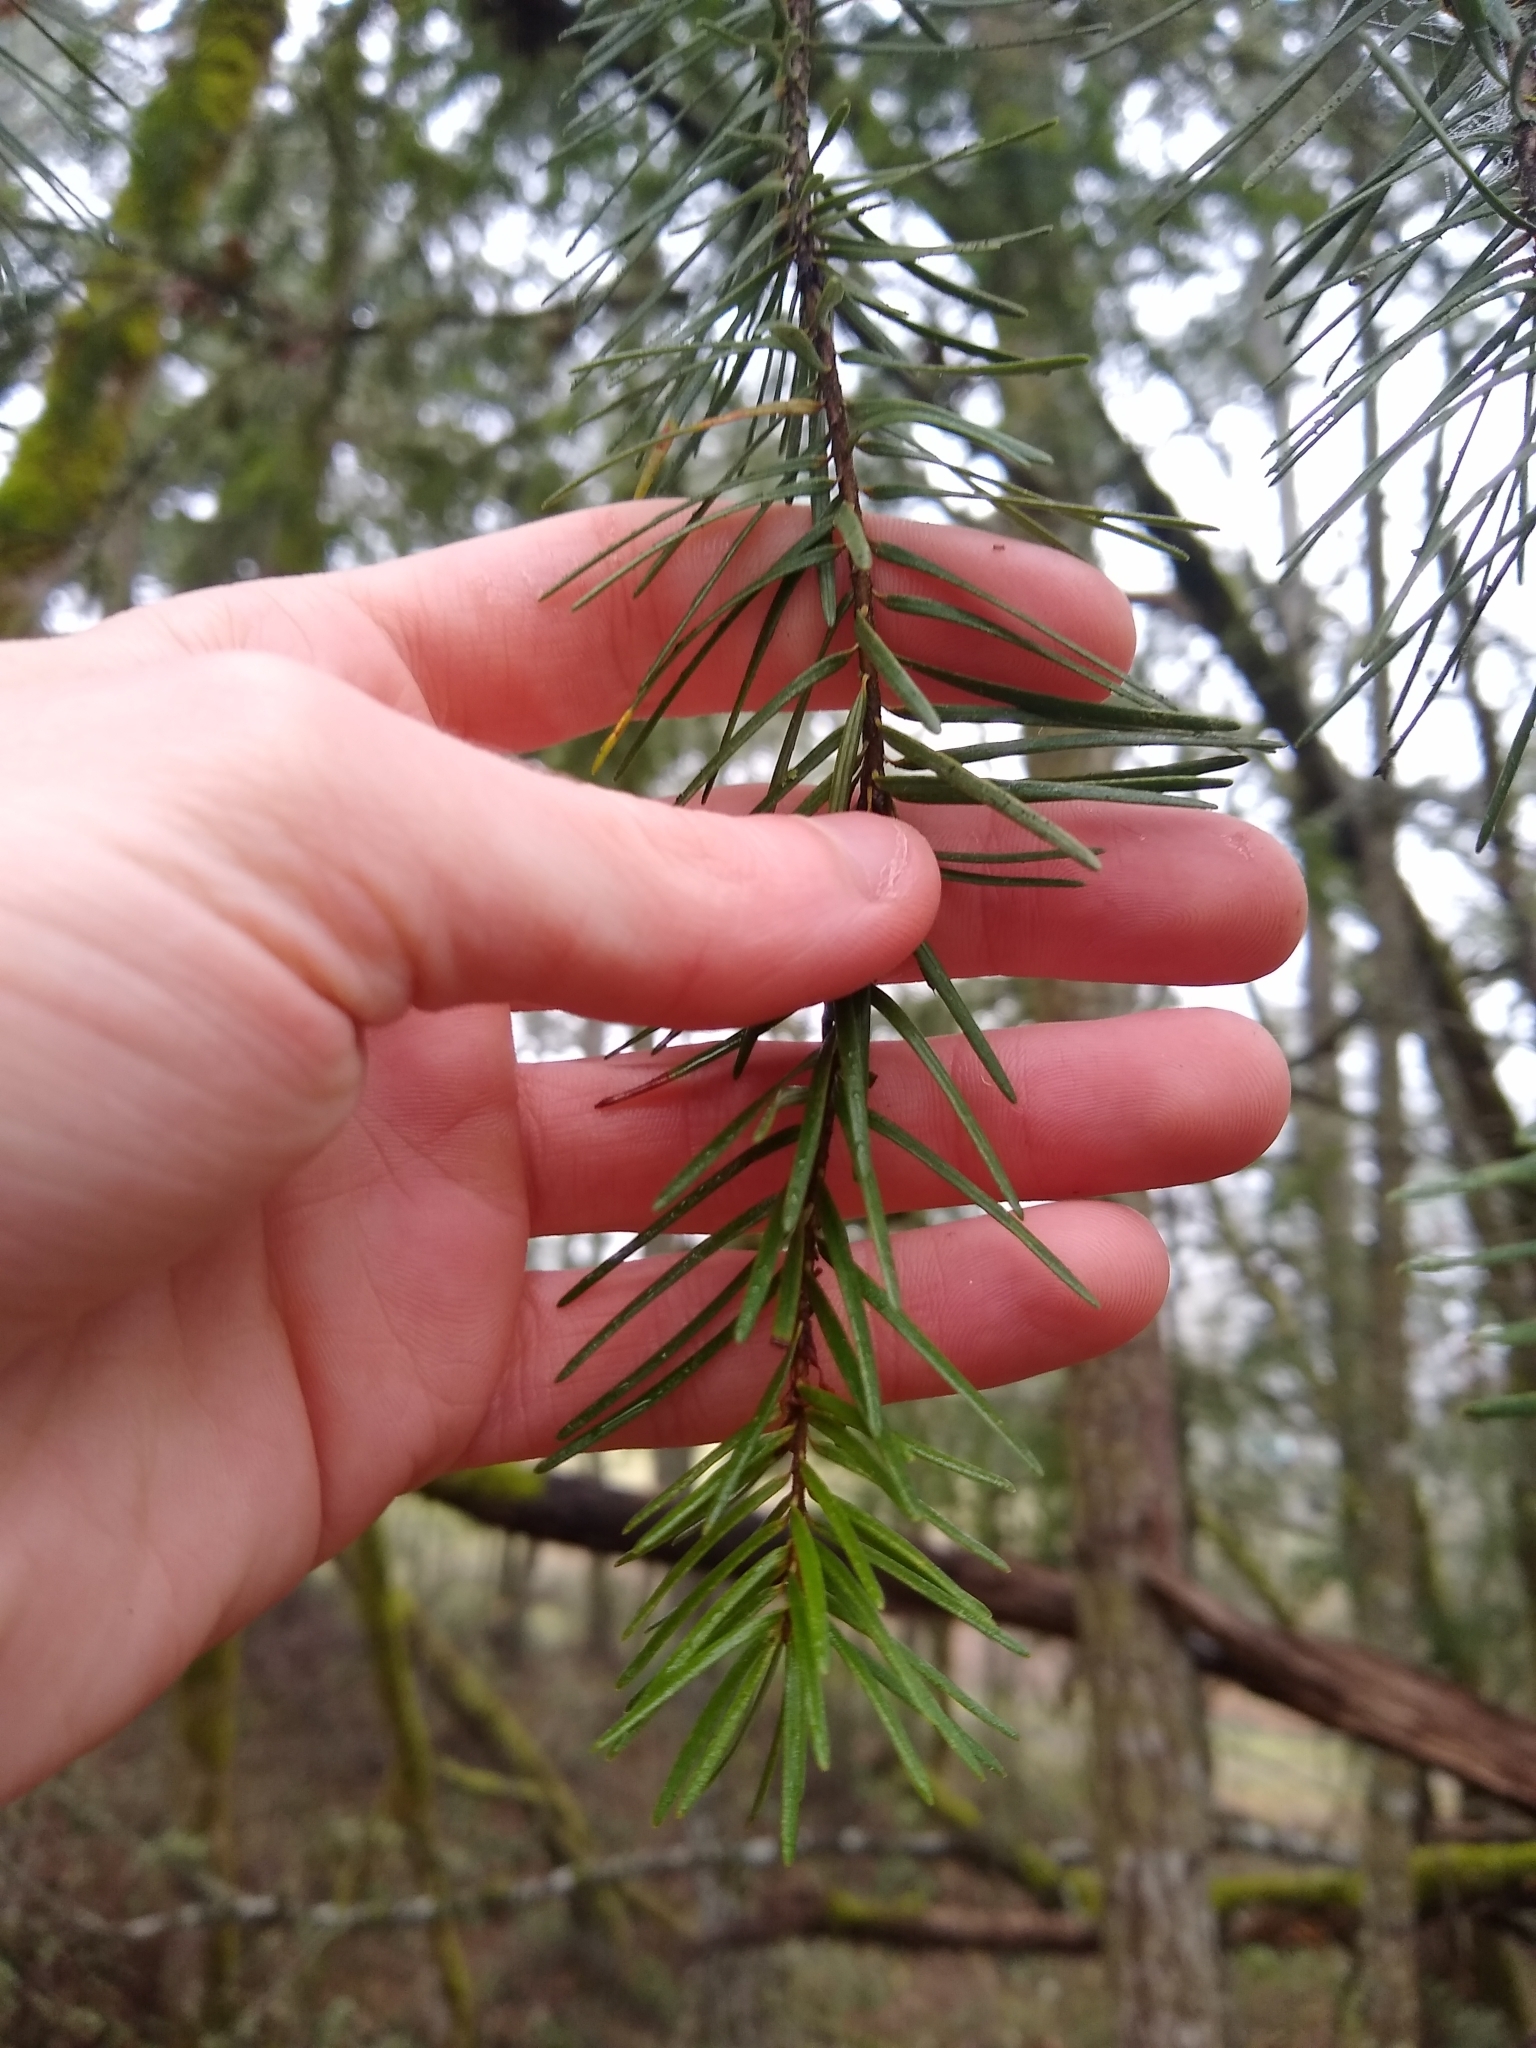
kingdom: Plantae
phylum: Tracheophyta
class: Pinopsida
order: Pinales
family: Pinaceae
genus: Pseudotsuga
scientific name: Pseudotsuga menziesii
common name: Douglas fir
